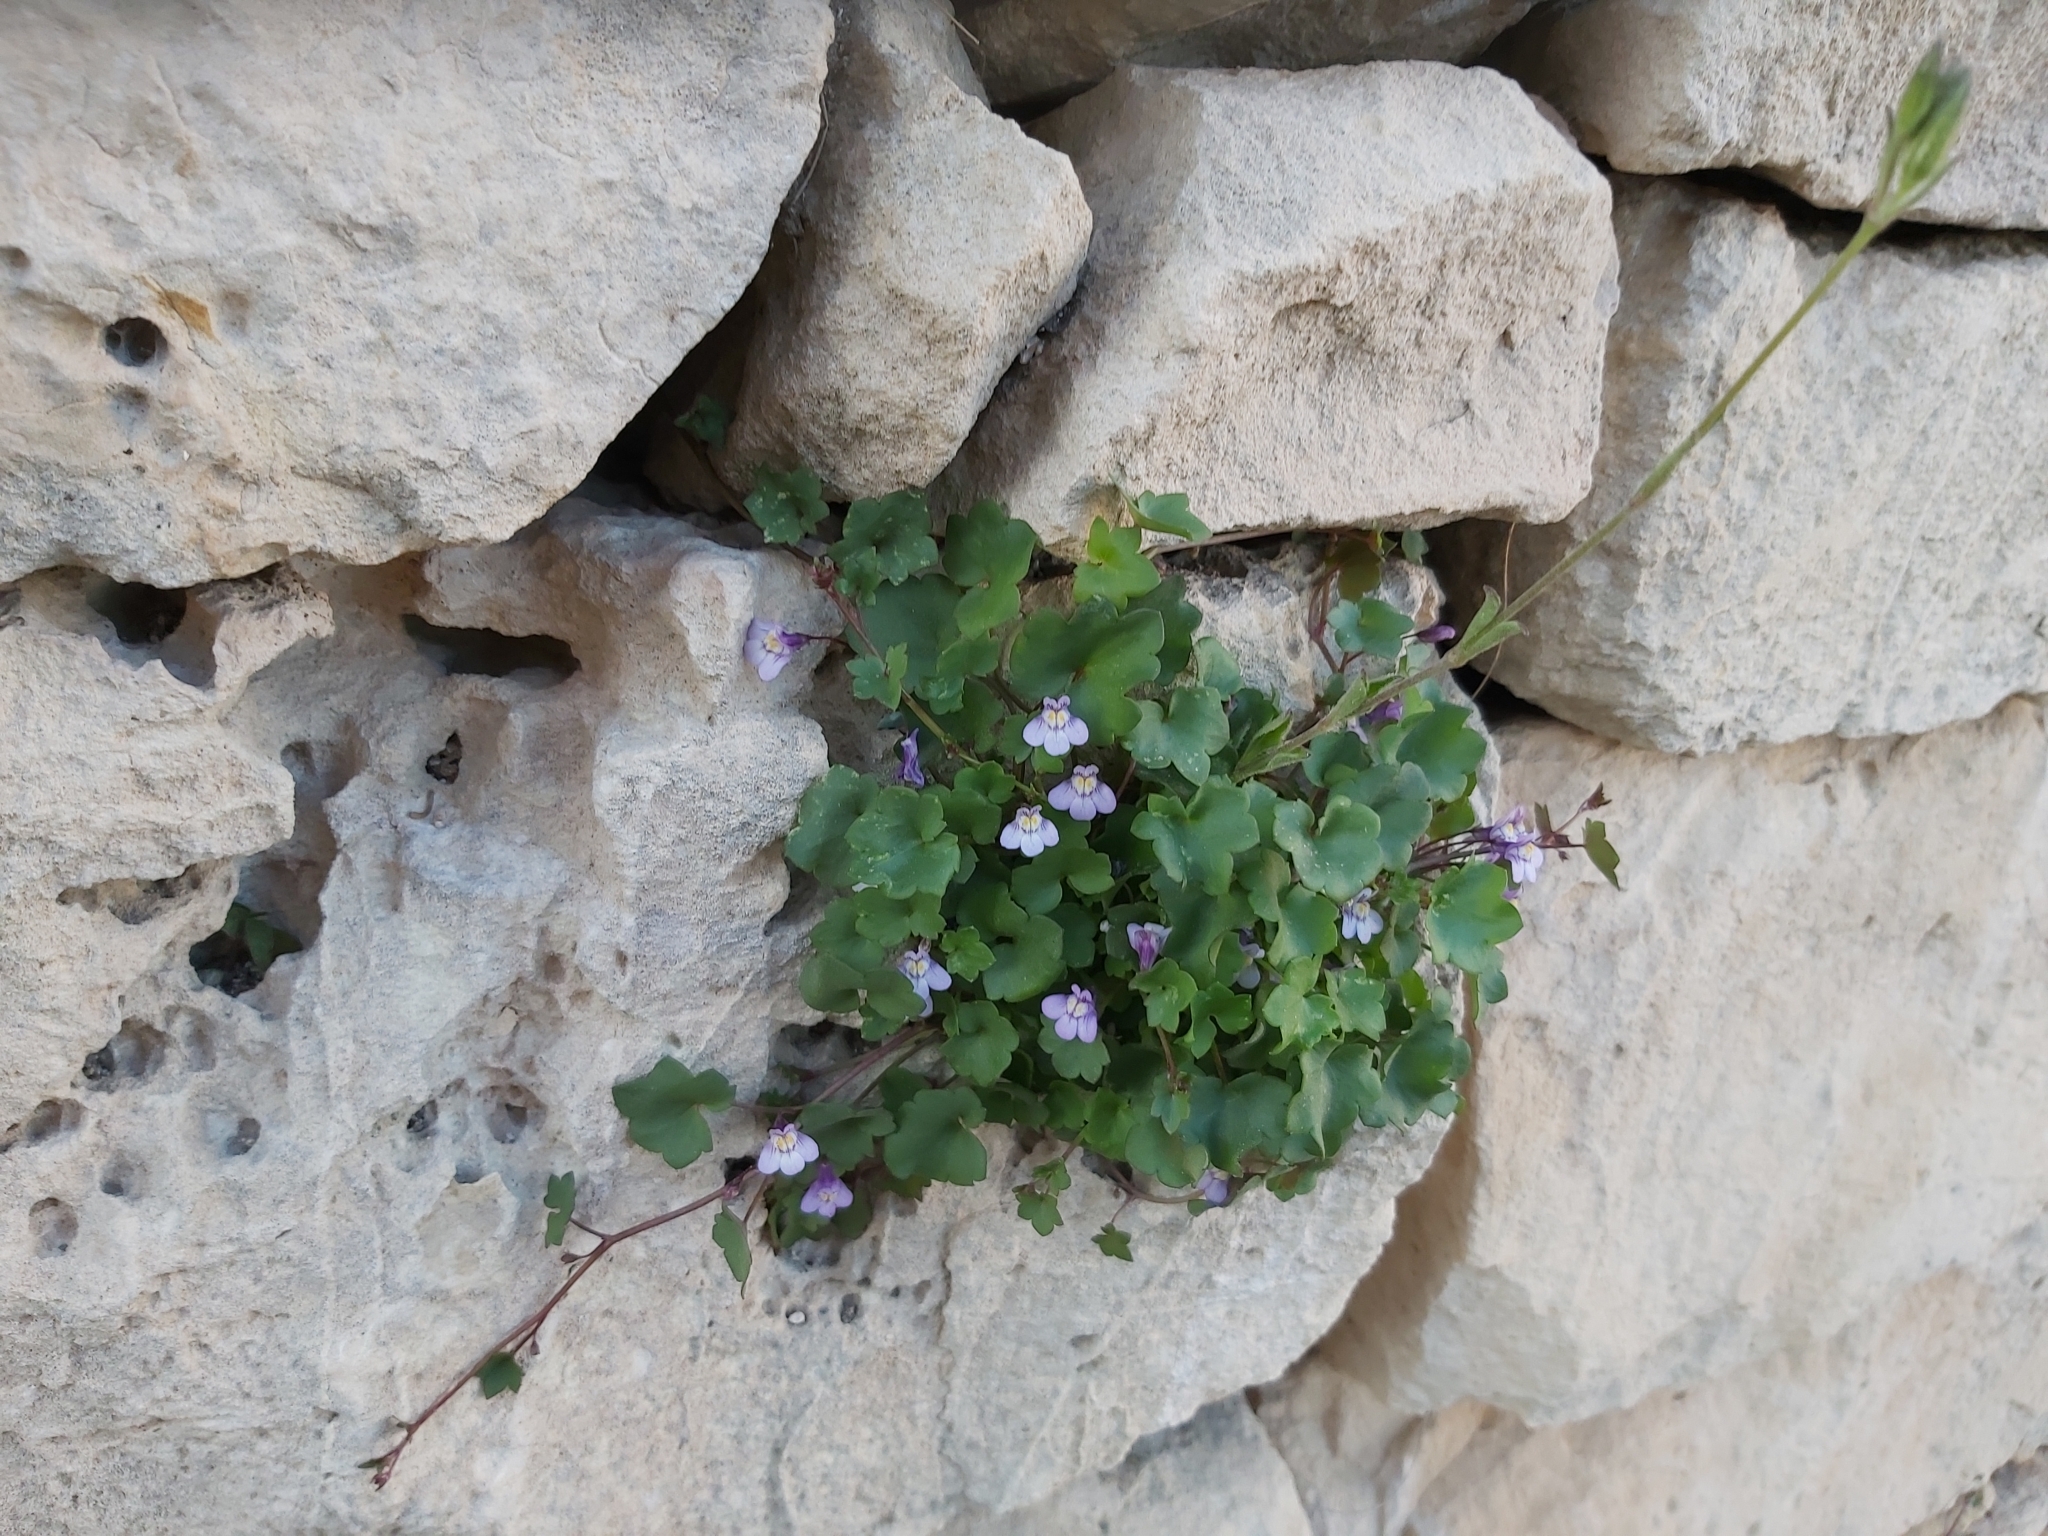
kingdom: Plantae
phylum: Tracheophyta
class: Magnoliopsida
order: Lamiales
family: Plantaginaceae
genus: Cymbalaria
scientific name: Cymbalaria muralis
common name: Ivy-leaved toadflax
